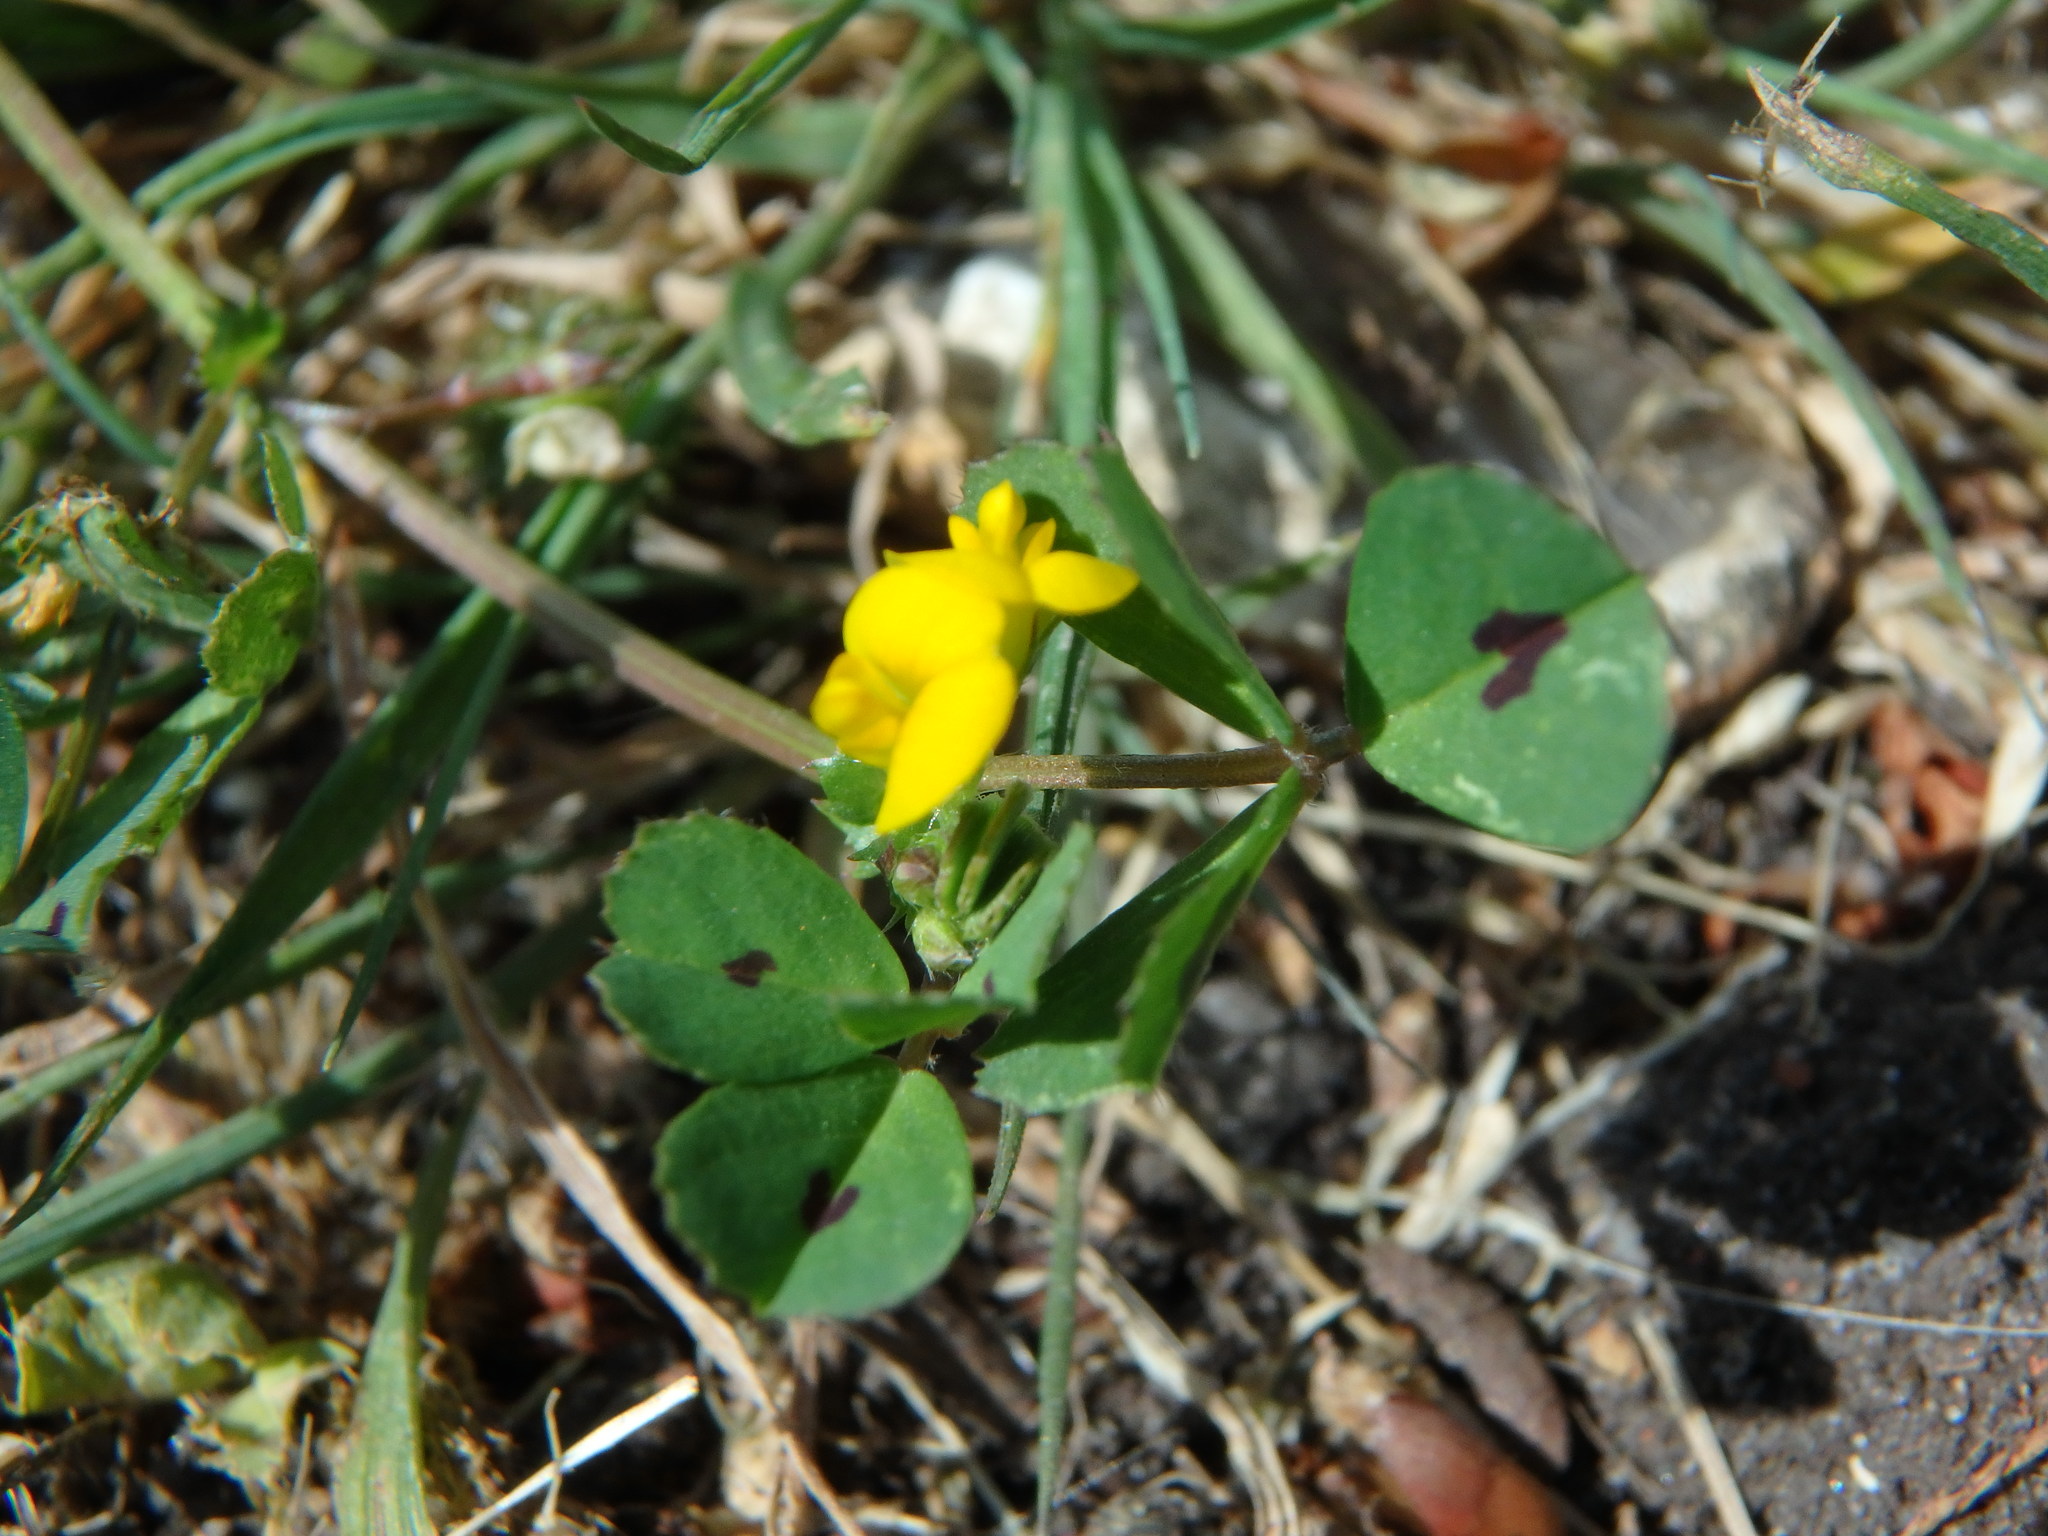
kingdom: Plantae
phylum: Tracheophyta
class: Magnoliopsida
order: Fabales
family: Fabaceae
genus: Medicago
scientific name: Medicago arabica
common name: Spotted medick
